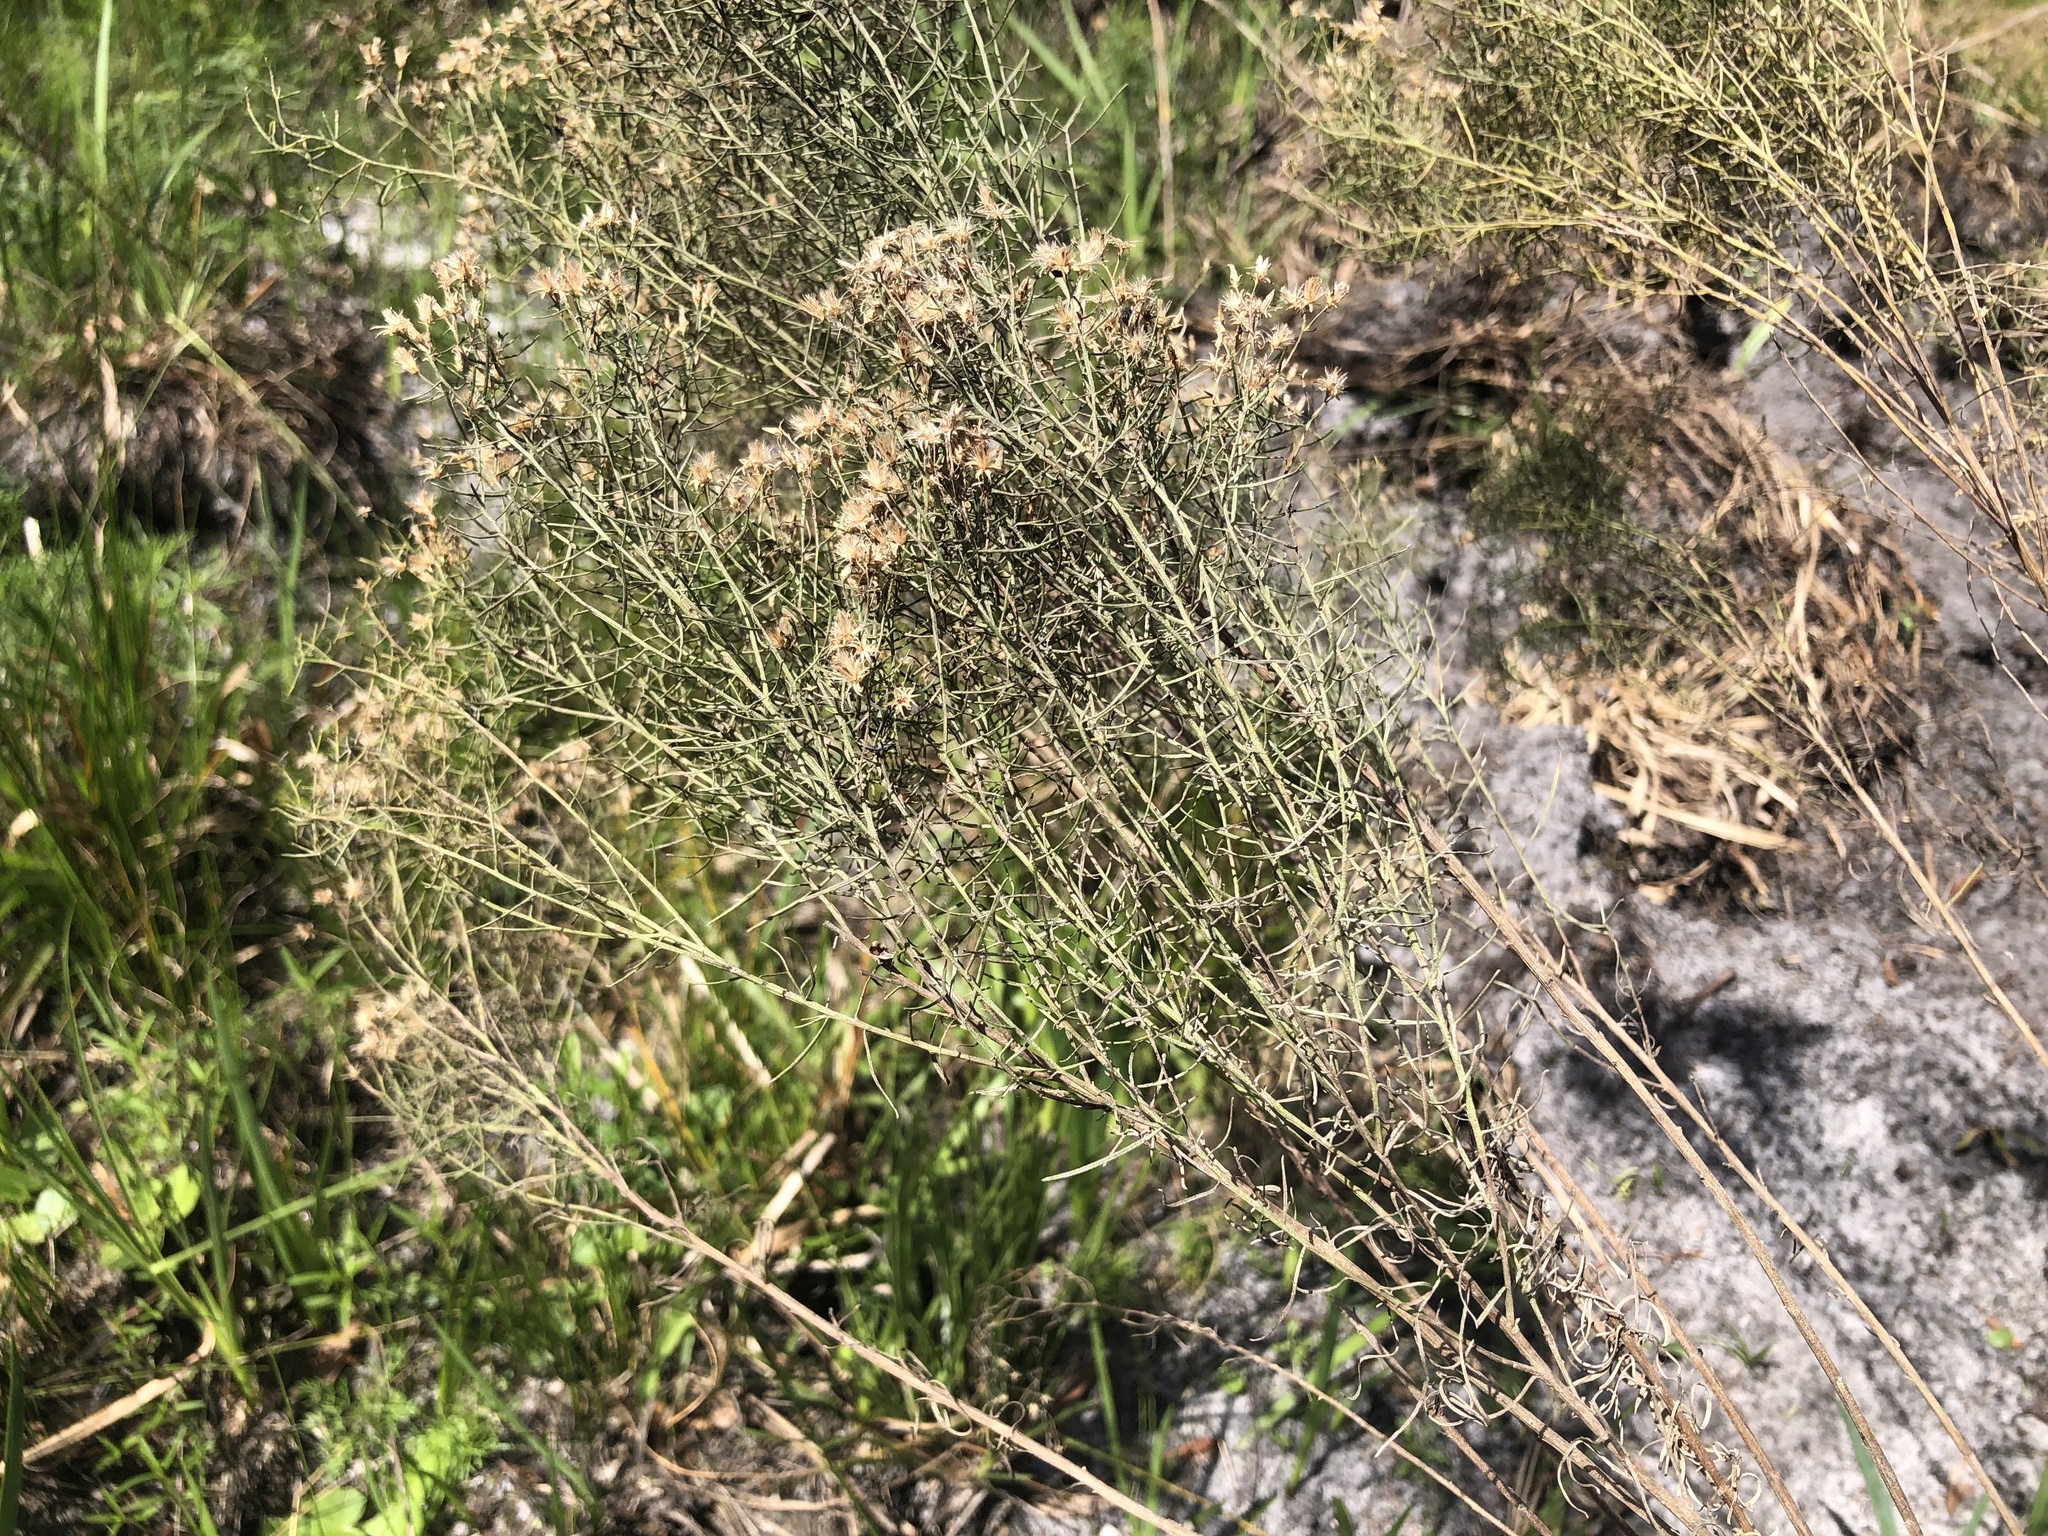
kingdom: Plantae
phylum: Tracheophyta
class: Magnoliopsida
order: Asterales
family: Asteraceae
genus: Euthamia
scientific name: Euthamia caroliniana
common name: Coastal plain goldentop
